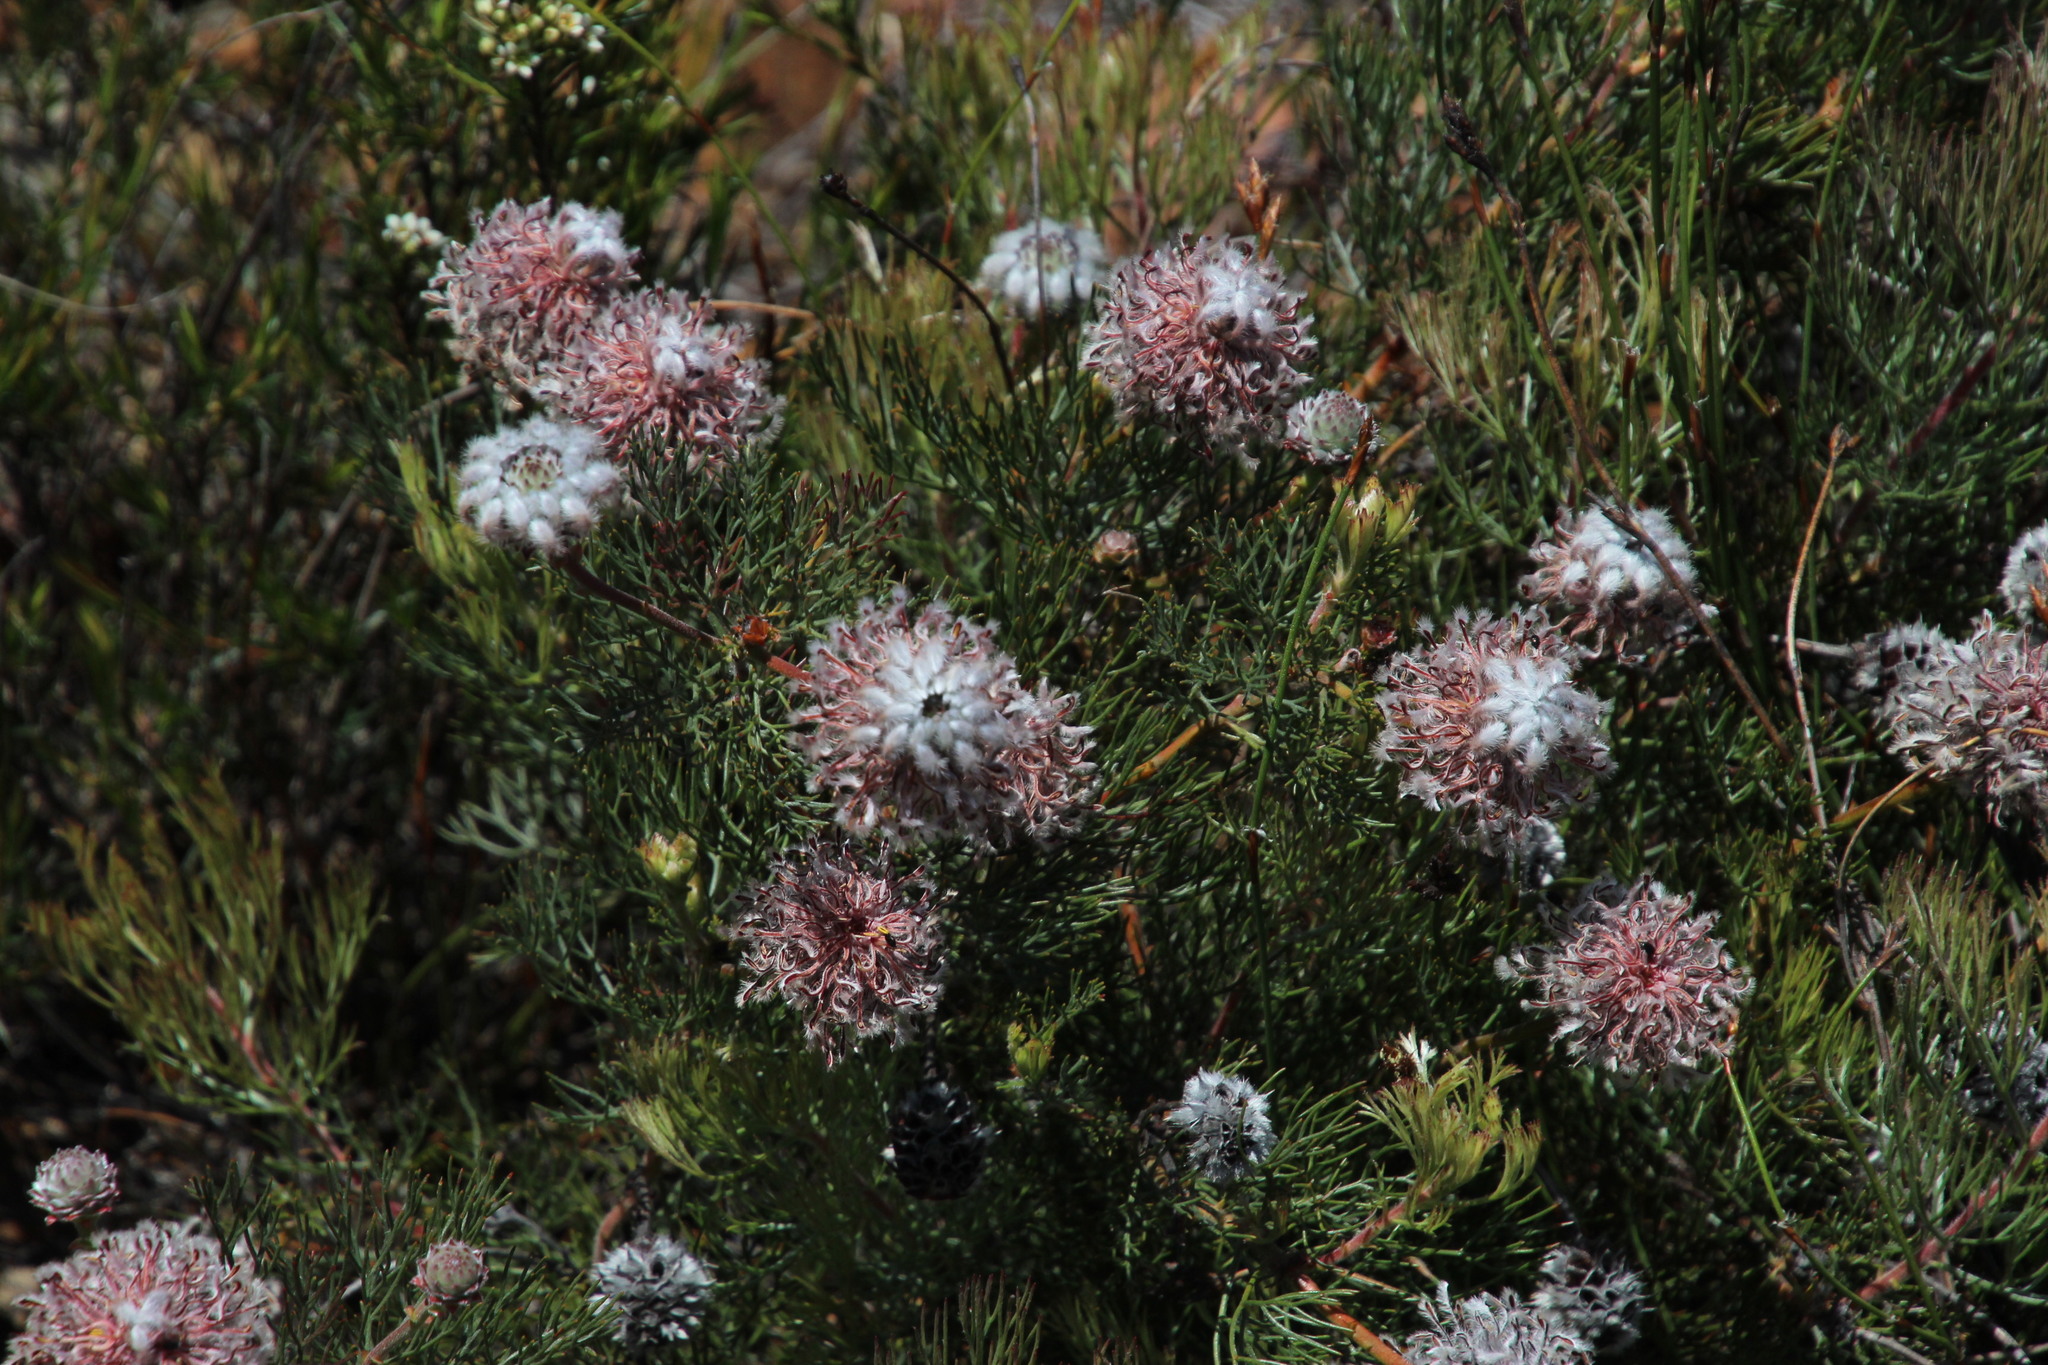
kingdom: Plantae
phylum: Tracheophyta
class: Magnoliopsida
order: Proteales
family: Proteaceae
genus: Serruria
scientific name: Serruria pedunculata
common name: Fan-leaf spiderhead
